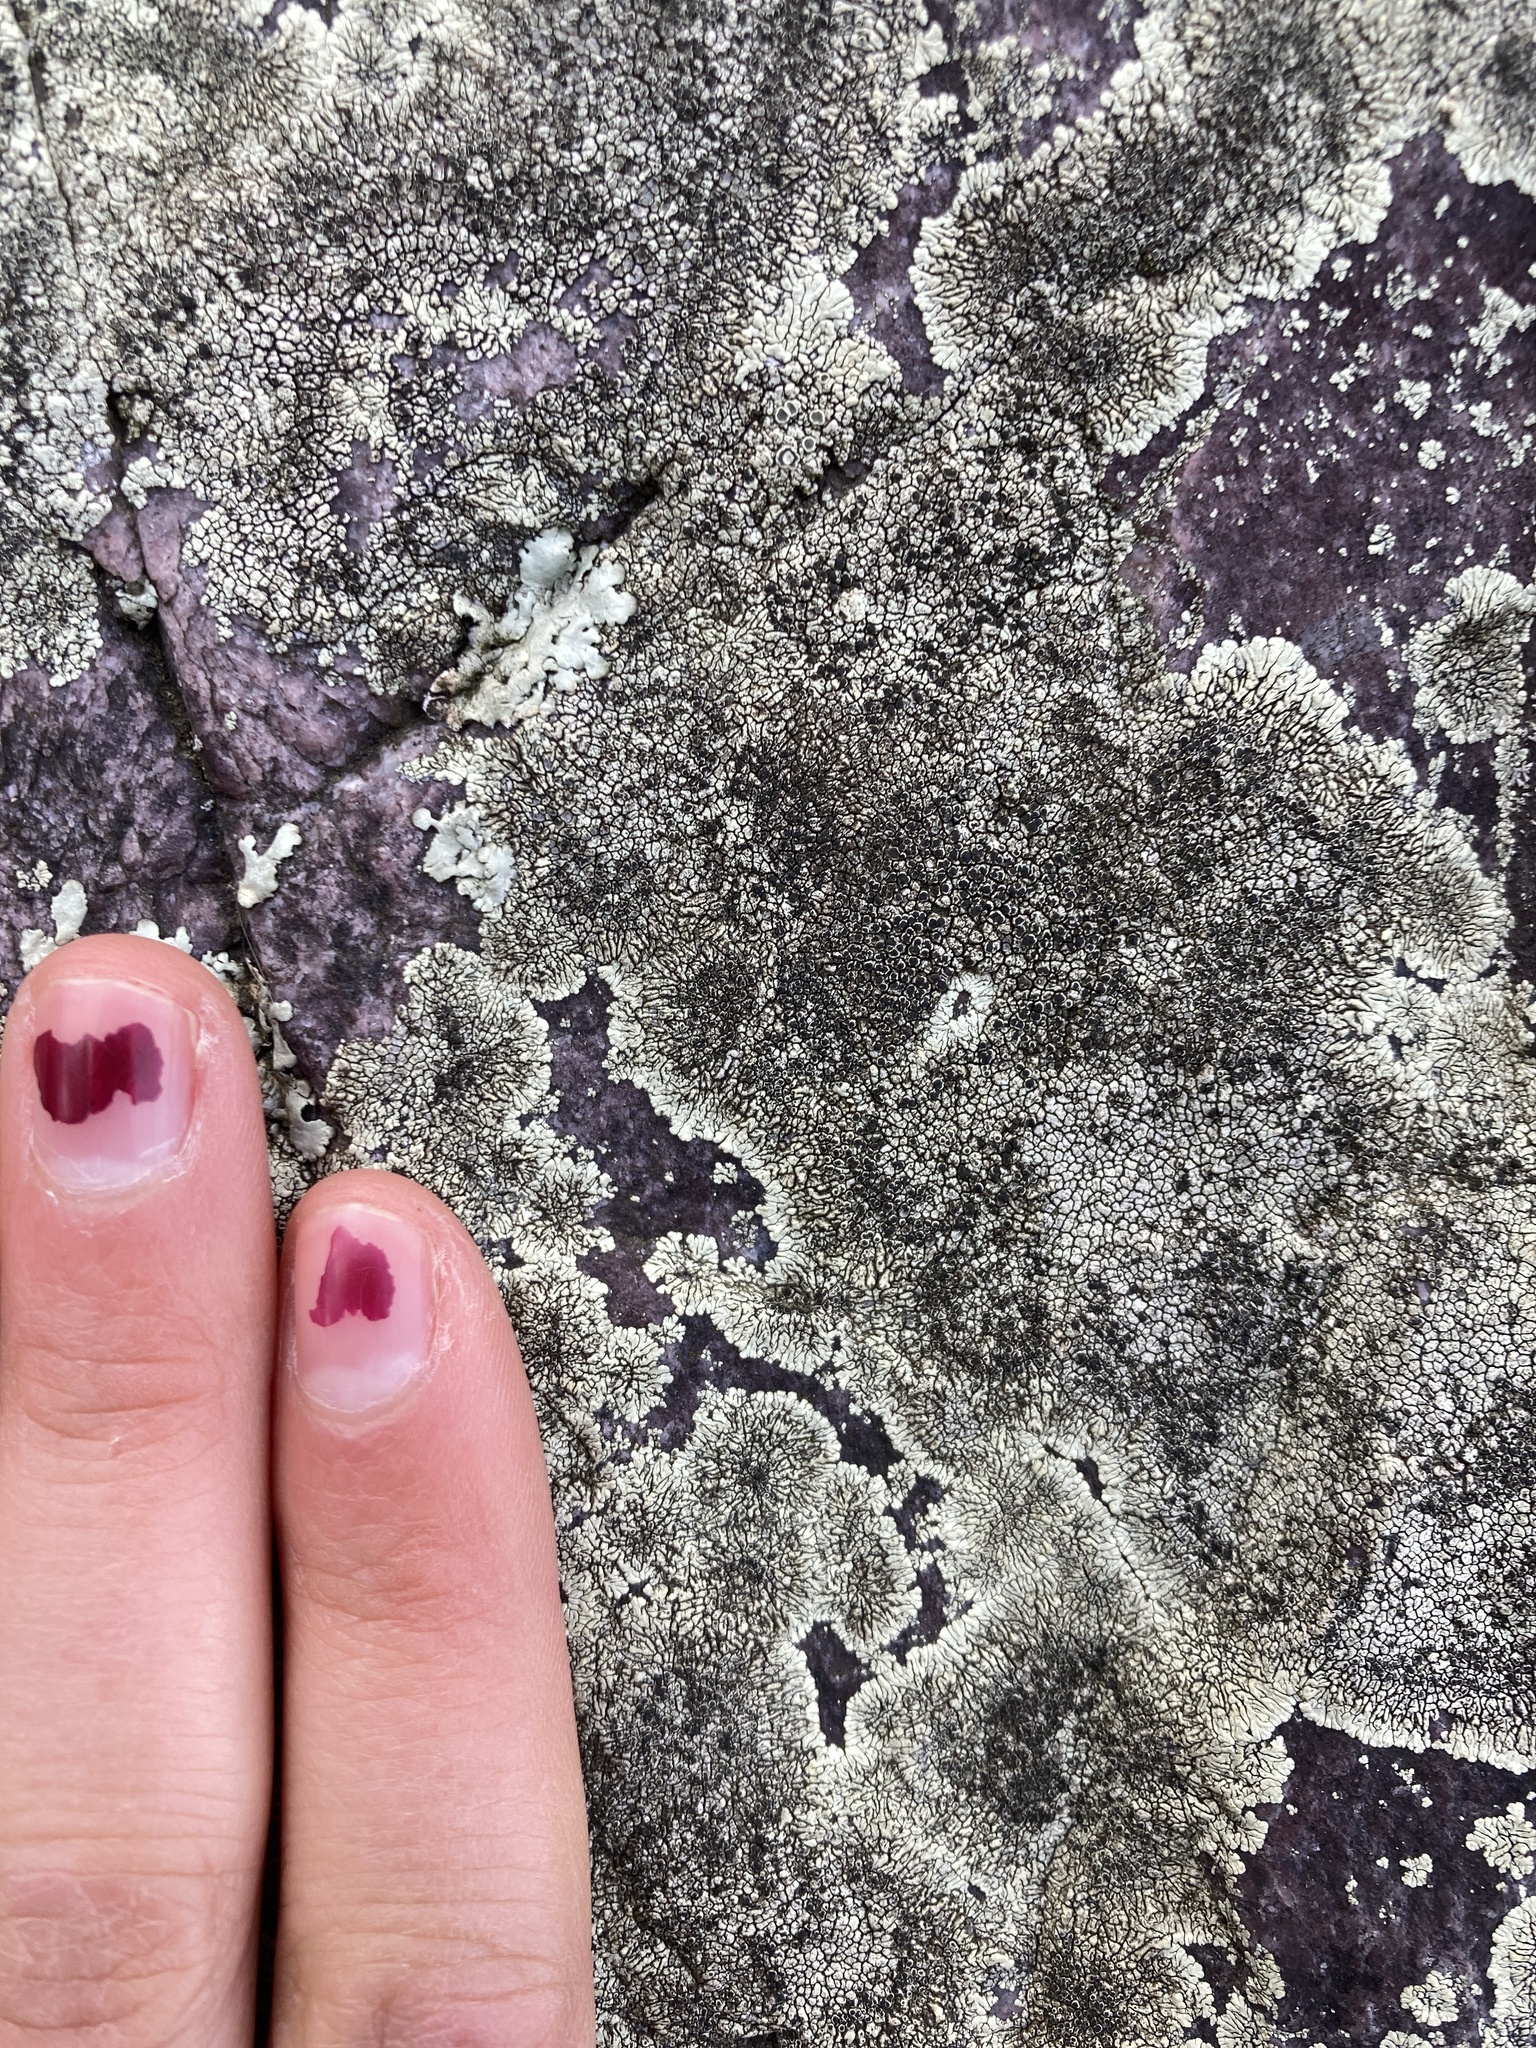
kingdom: Fungi
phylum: Ascomycota
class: Lecanoromycetes
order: Caliciales
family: Caliciaceae
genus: Dimelaena
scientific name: Dimelaena oreina
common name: Golden moonglow lichen
